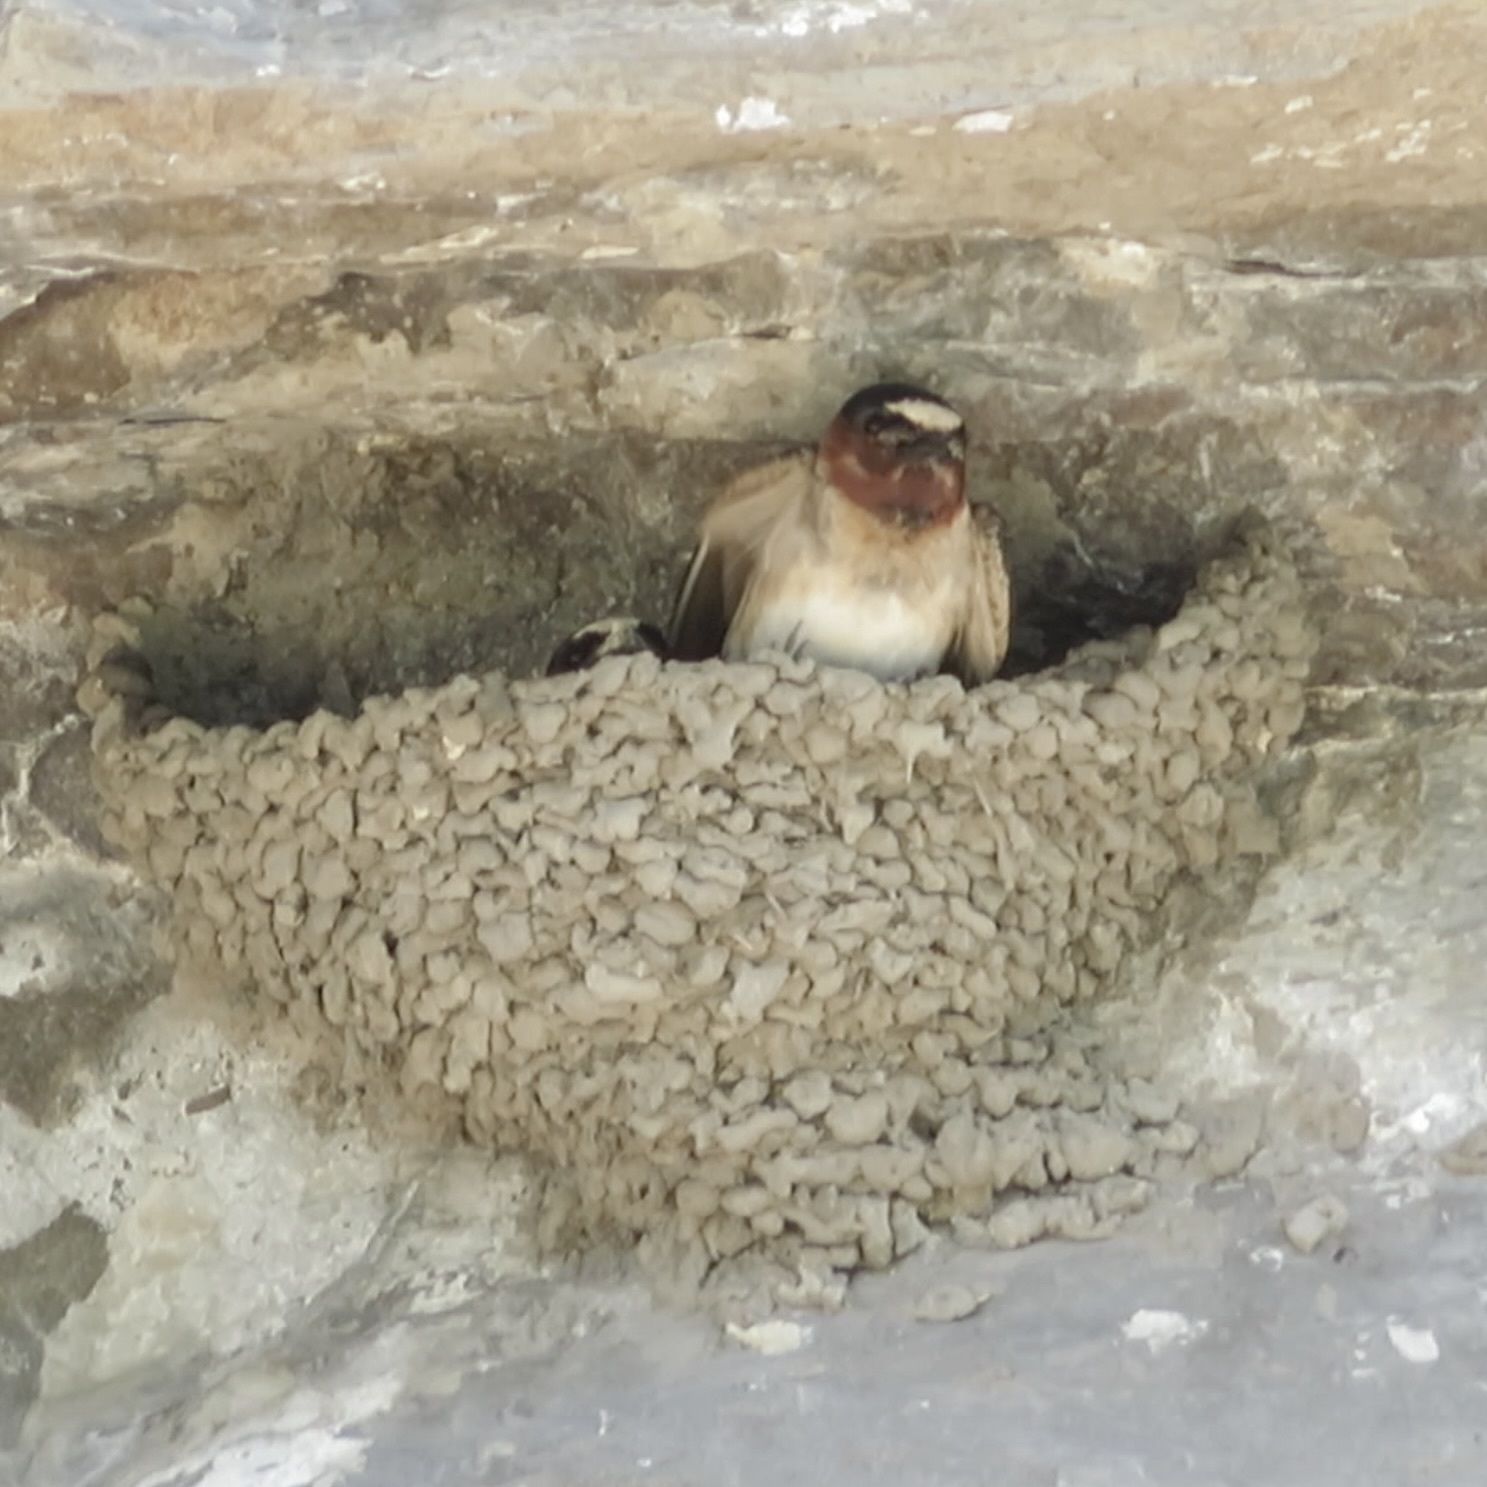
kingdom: Animalia
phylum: Chordata
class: Aves
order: Passeriformes
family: Hirundinidae
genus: Petrochelidon
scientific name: Petrochelidon pyrrhonota
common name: American cliff swallow
